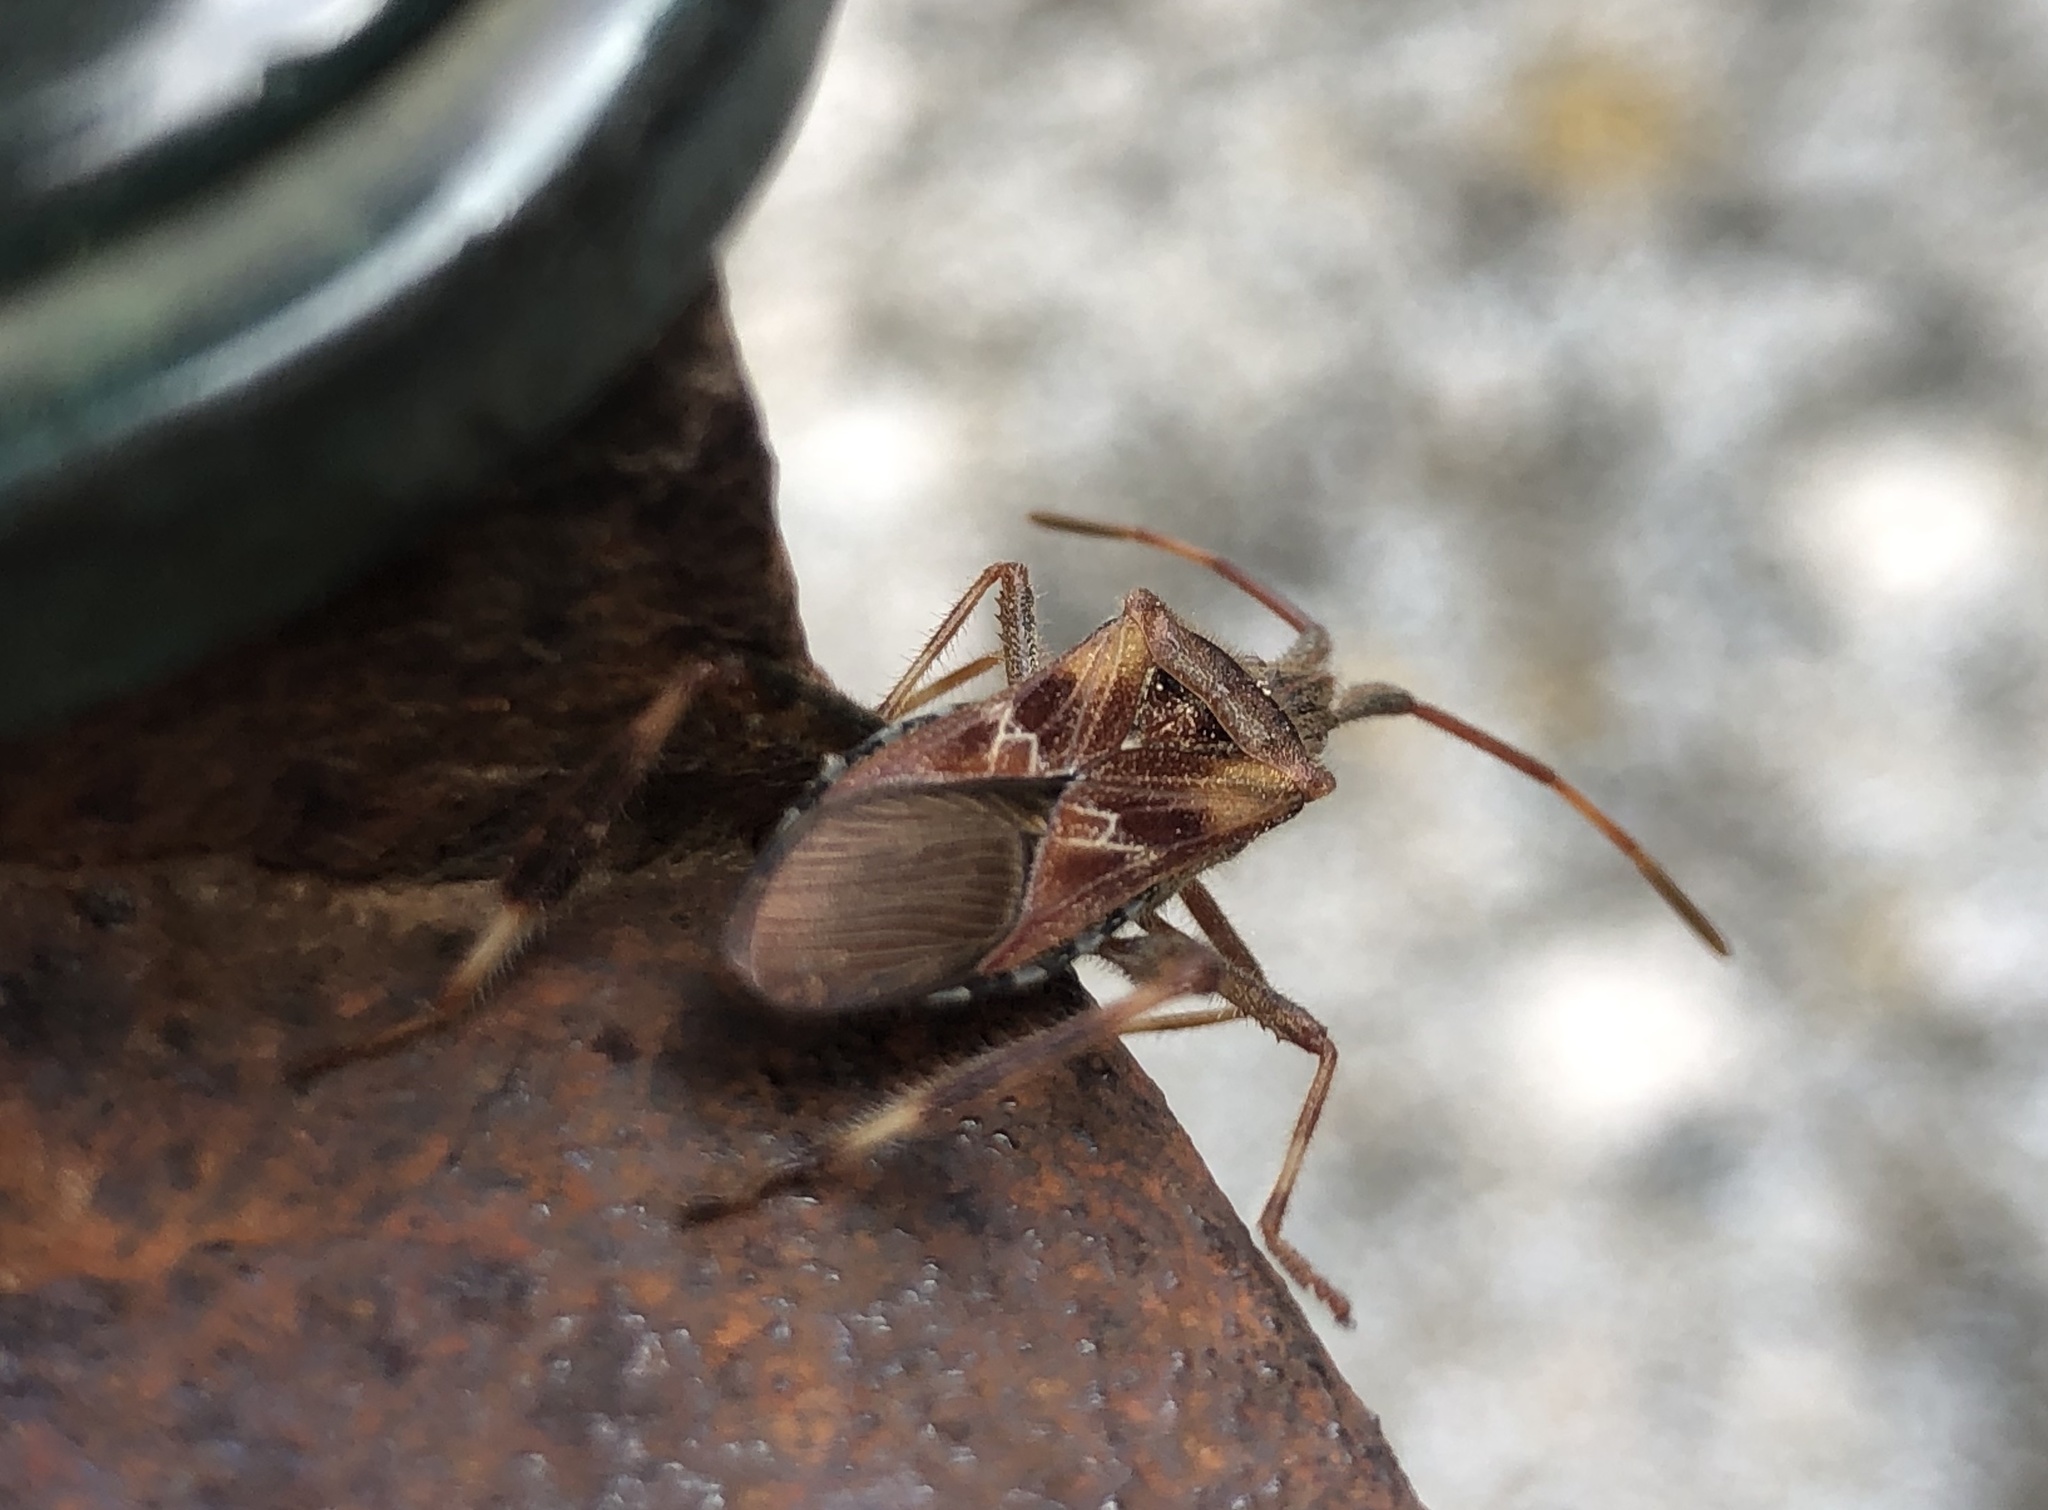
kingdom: Animalia
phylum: Arthropoda
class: Insecta
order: Hemiptera
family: Coreidae
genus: Leptoglossus
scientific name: Leptoglossus occidentalis
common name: Western conifer-seed bug
